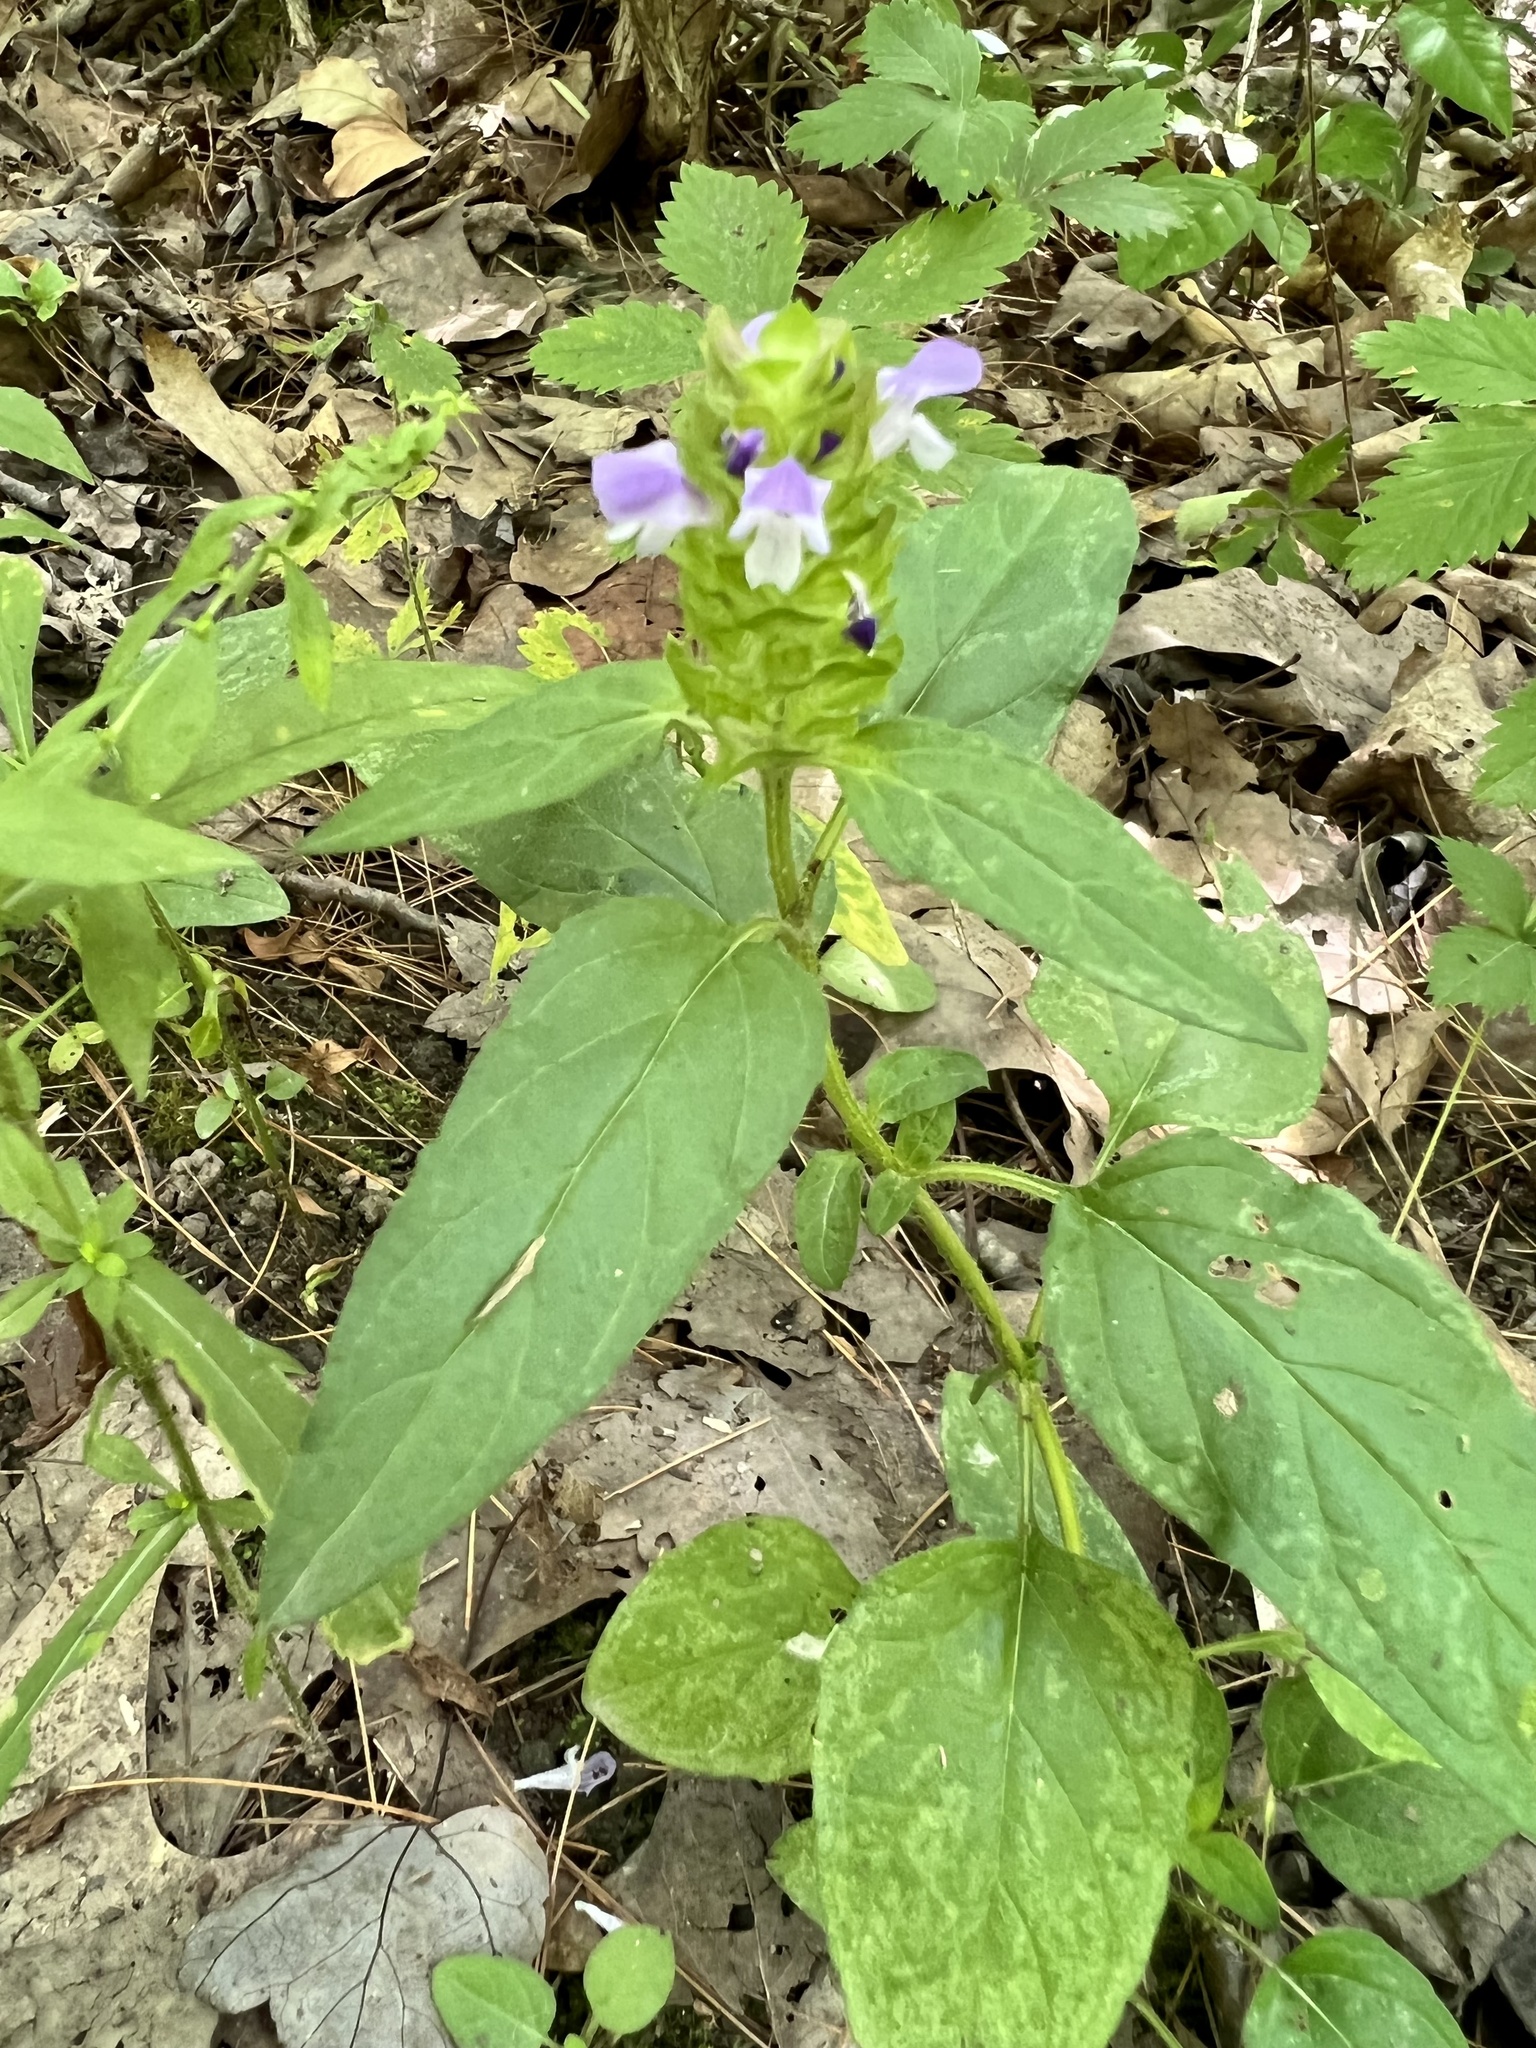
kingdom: Plantae
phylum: Tracheophyta
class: Magnoliopsida
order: Lamiales
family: Lamiaceae
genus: Prunella
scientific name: Prunella vulgaris
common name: Heal-all
